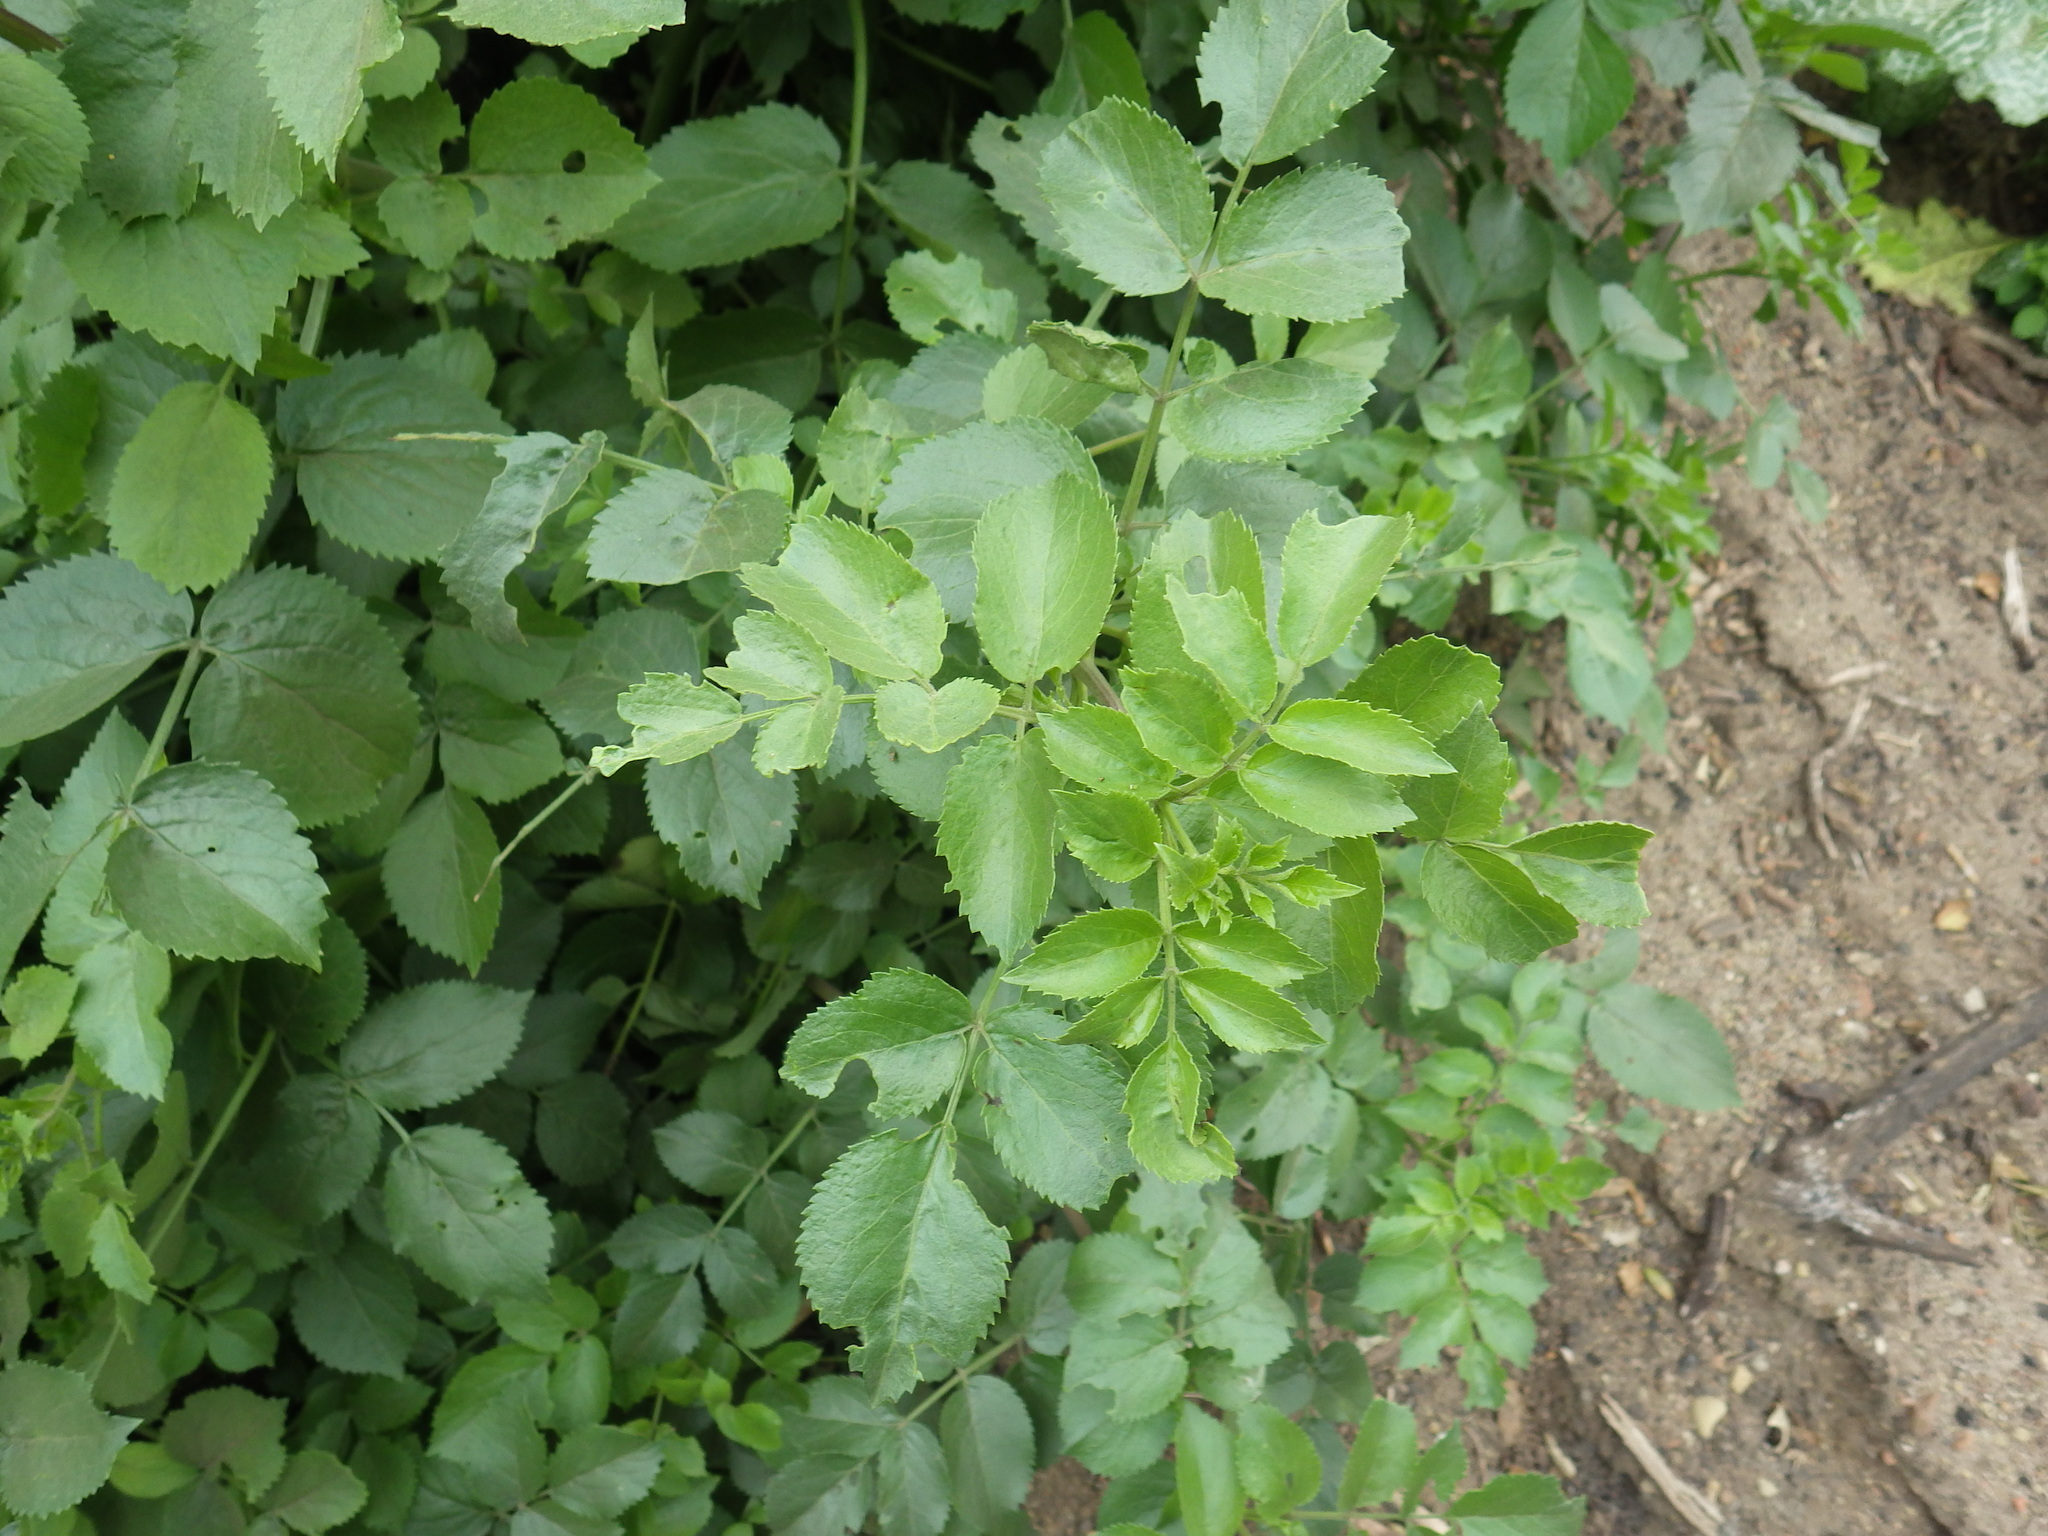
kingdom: Plantae
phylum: Tracheophyta
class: Magnoliopsida
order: Dipsacales
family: Viburnaceae
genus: Sambucus
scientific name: Sambucus cerulea
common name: Blue elder
